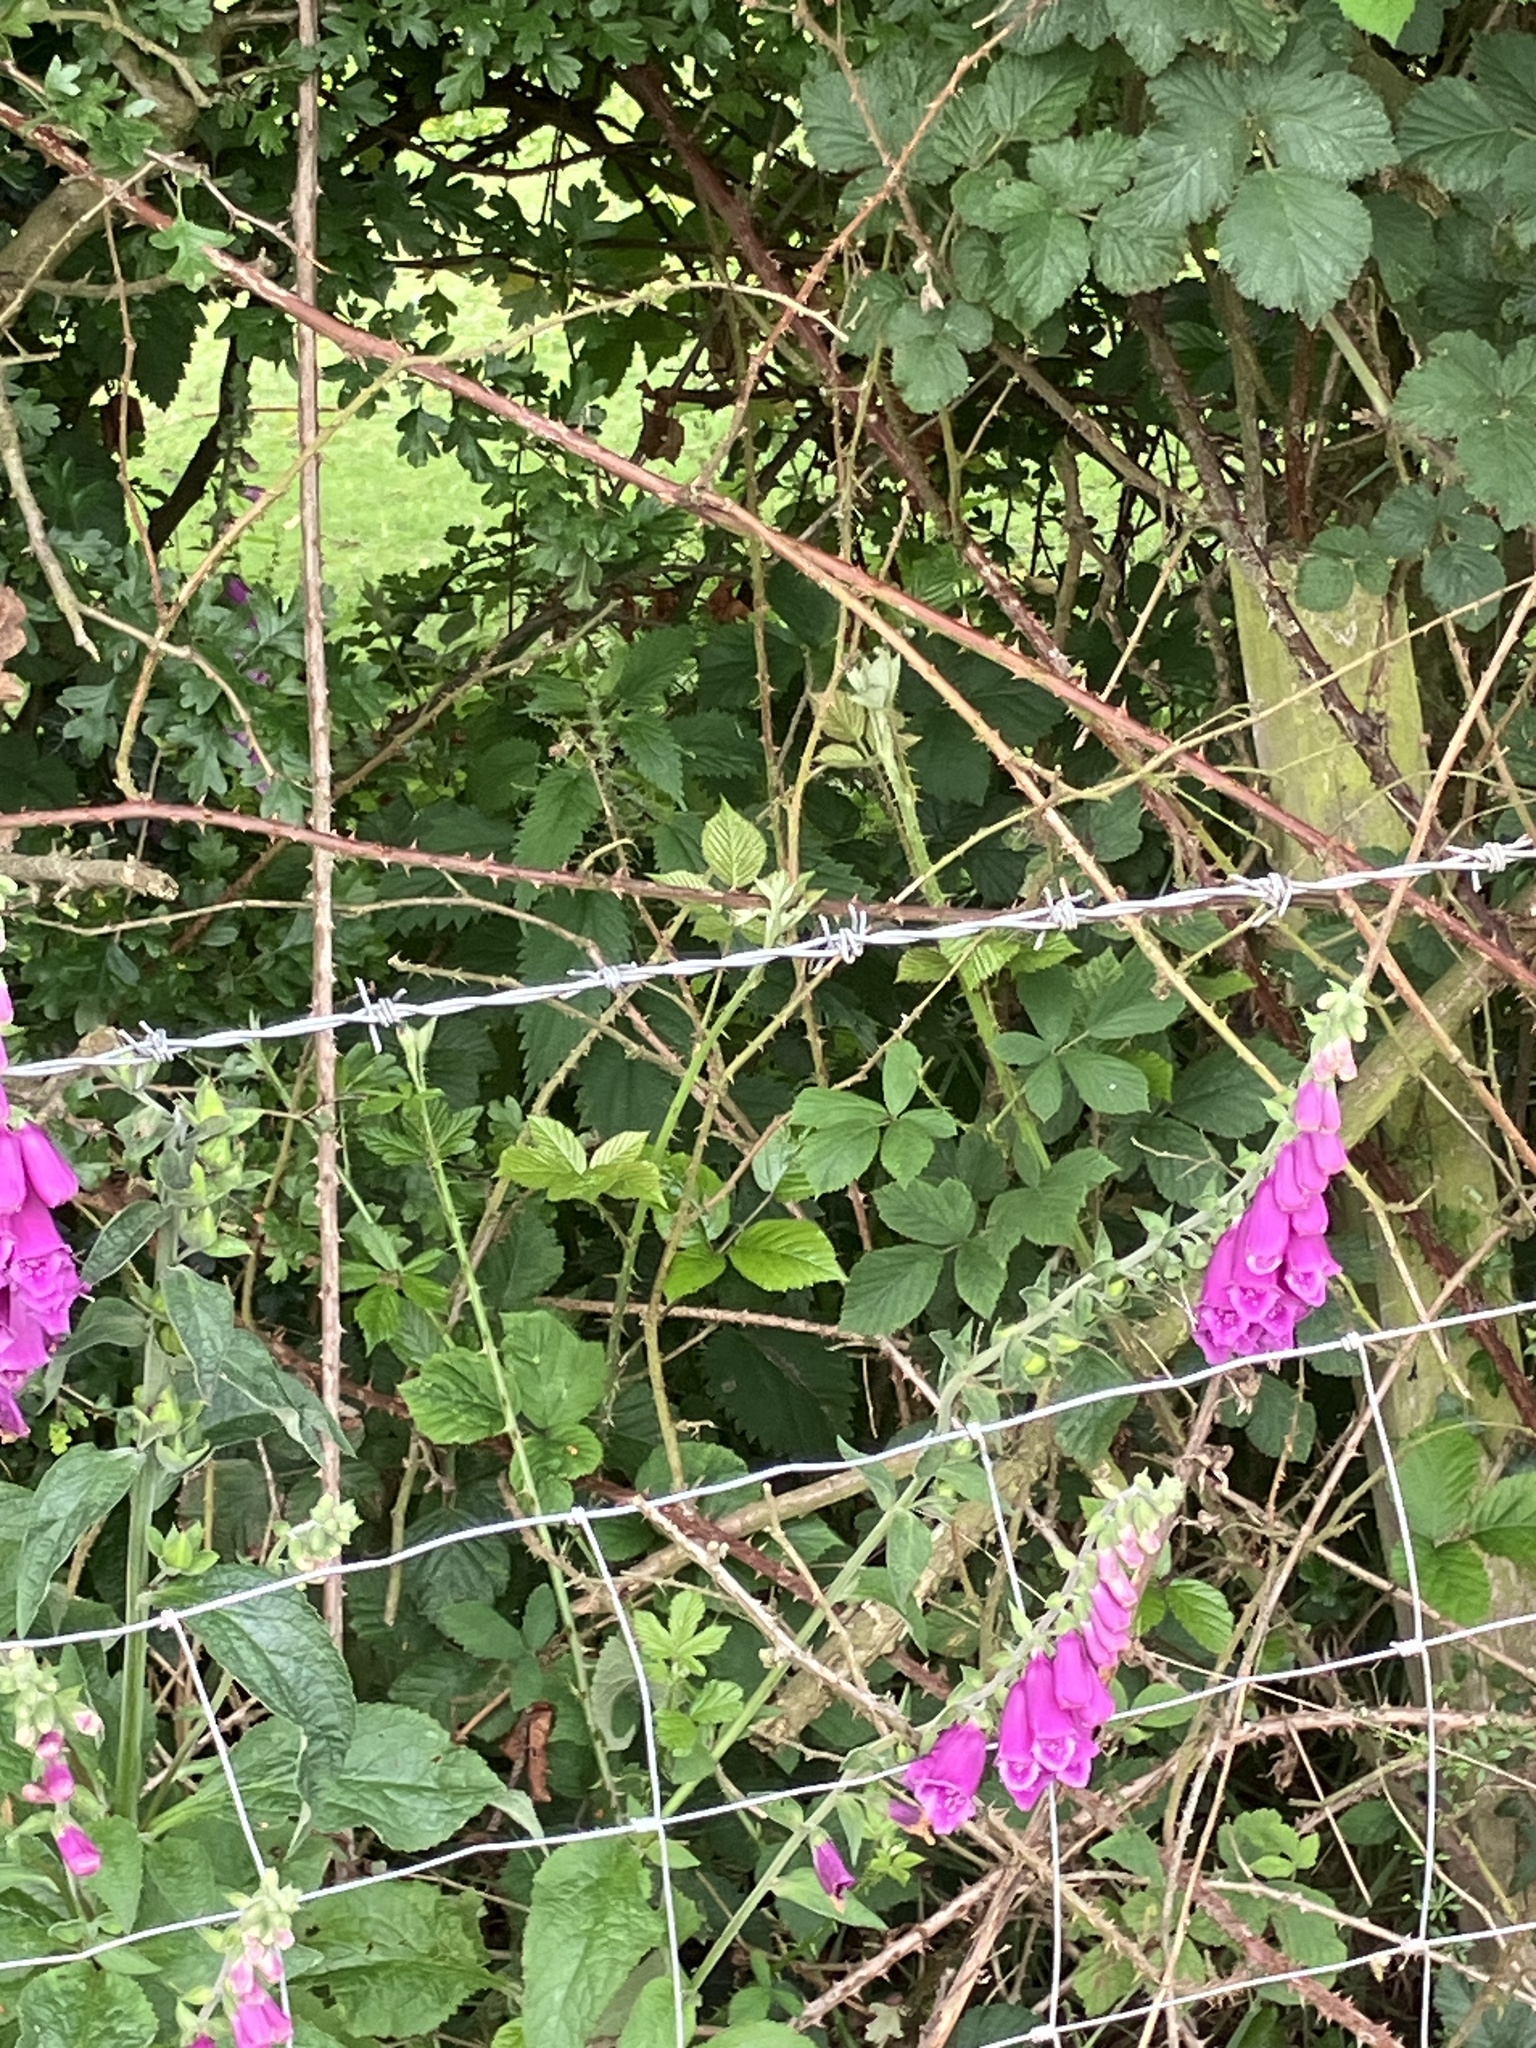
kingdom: Plantae
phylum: Tracheophyta
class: Magnoliopsida
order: Lamiales
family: Plantaginaceae
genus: Digitalis
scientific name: Digitalis purpurea
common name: Foxglove
